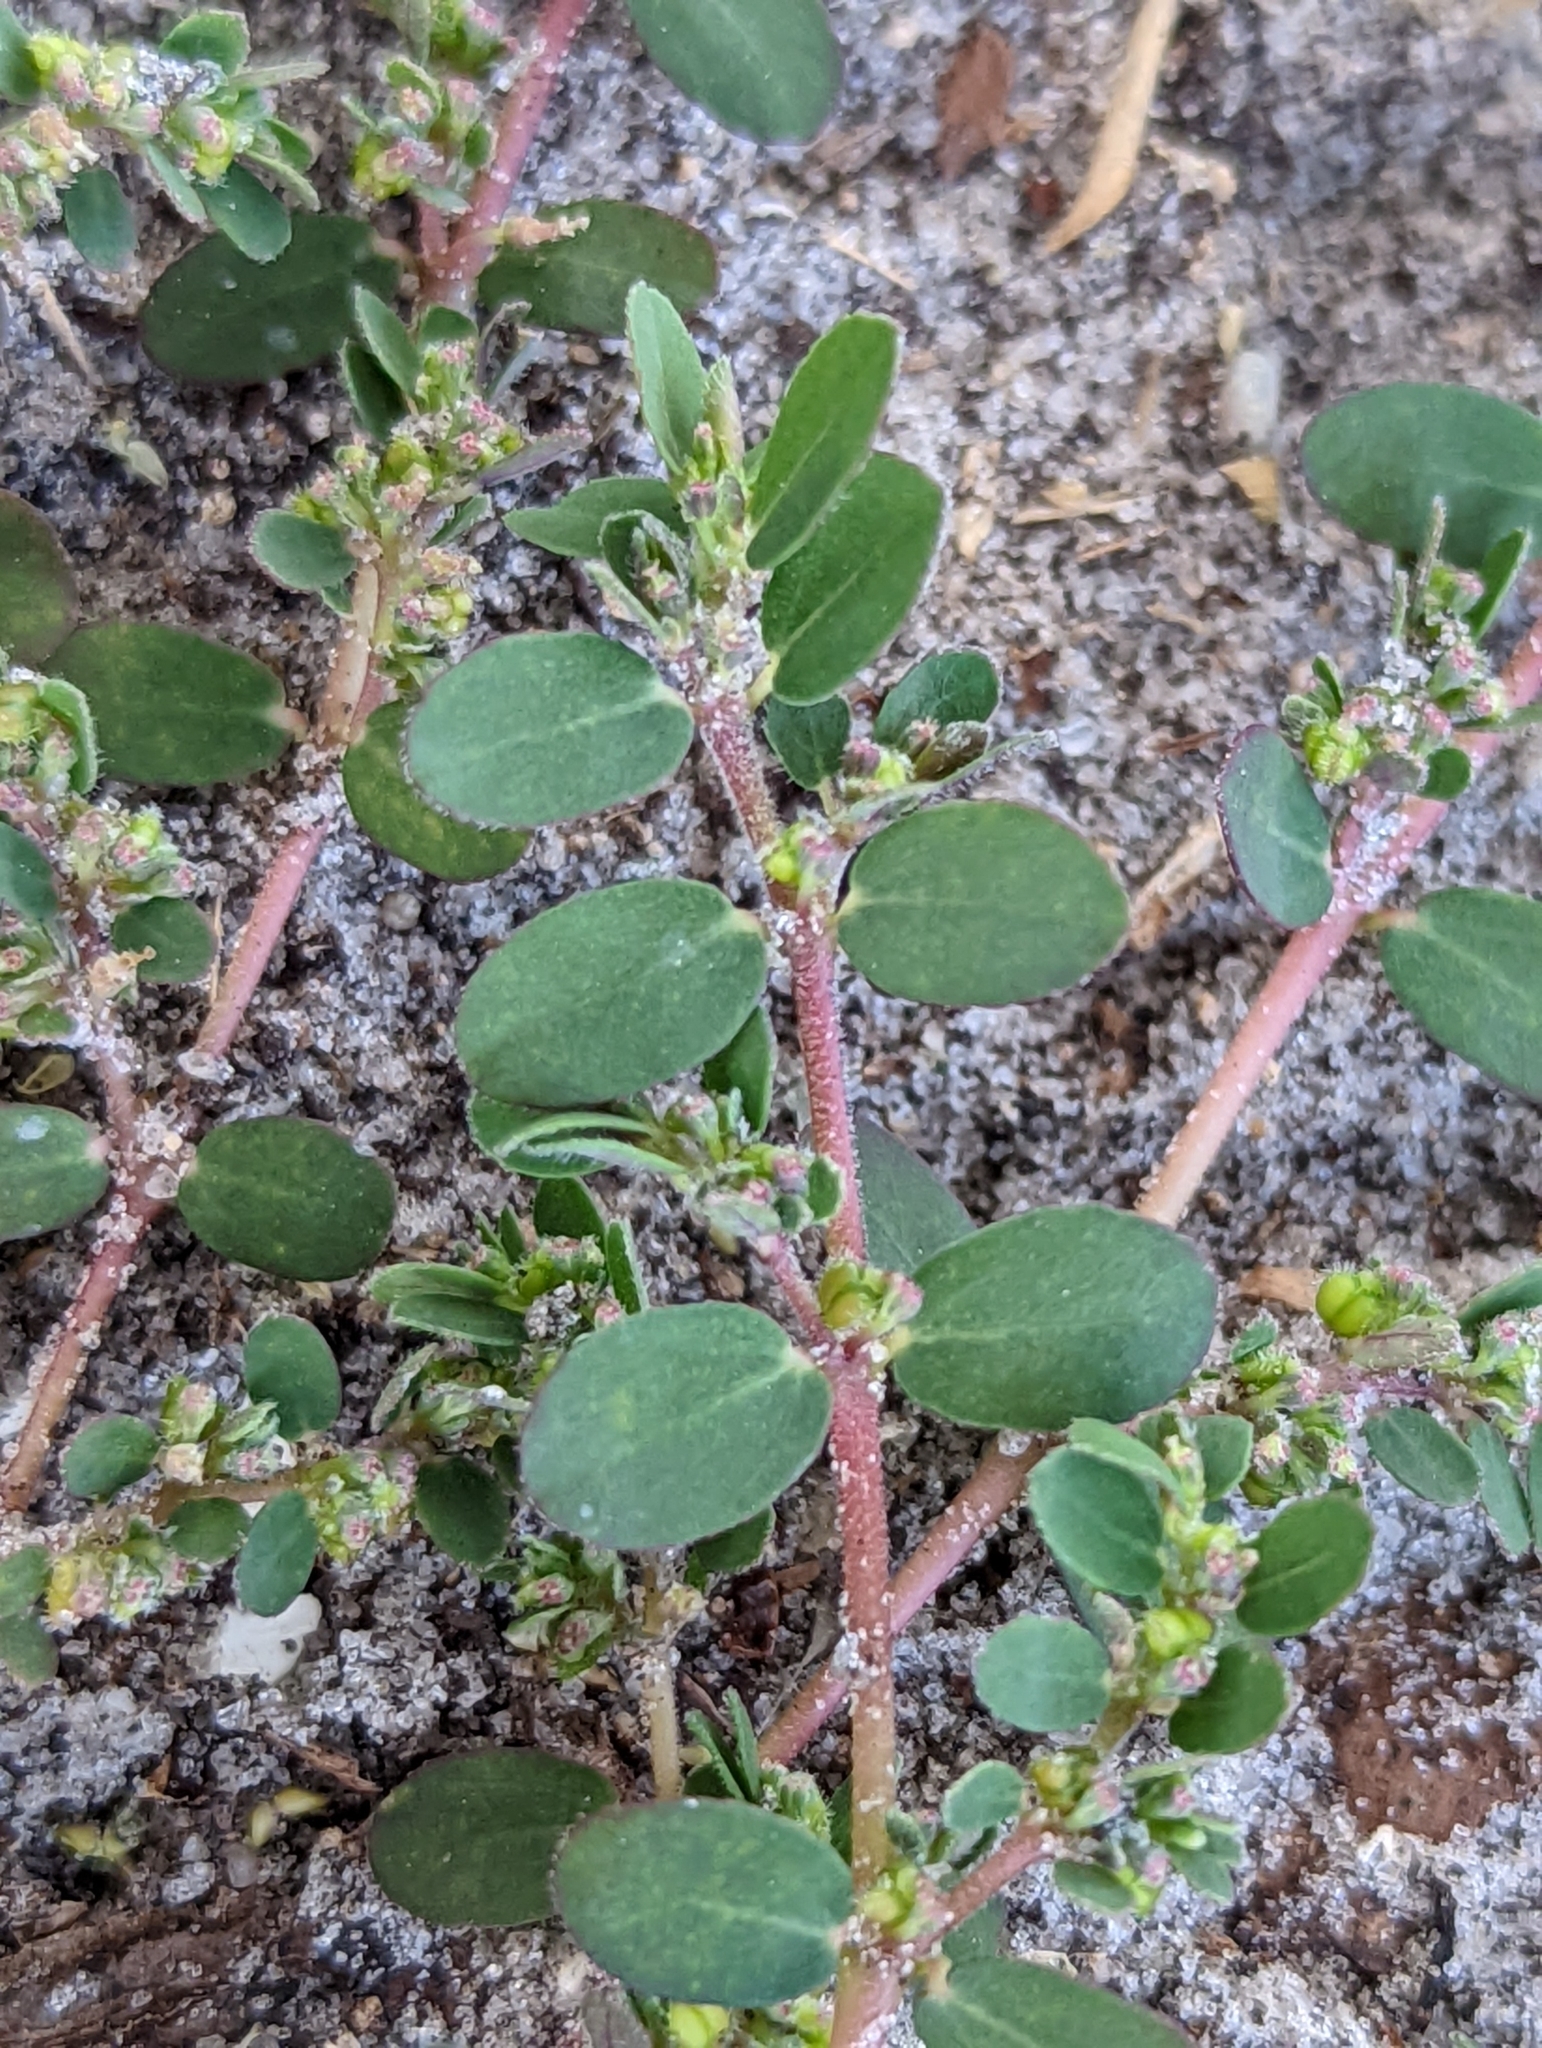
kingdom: Plantae
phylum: Tracheophyta
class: Magnoliopsida
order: Malpighiales
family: Euphorbiaceae
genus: Euphorbia
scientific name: Euphorbia prostrata
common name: Prostrate sandmat
